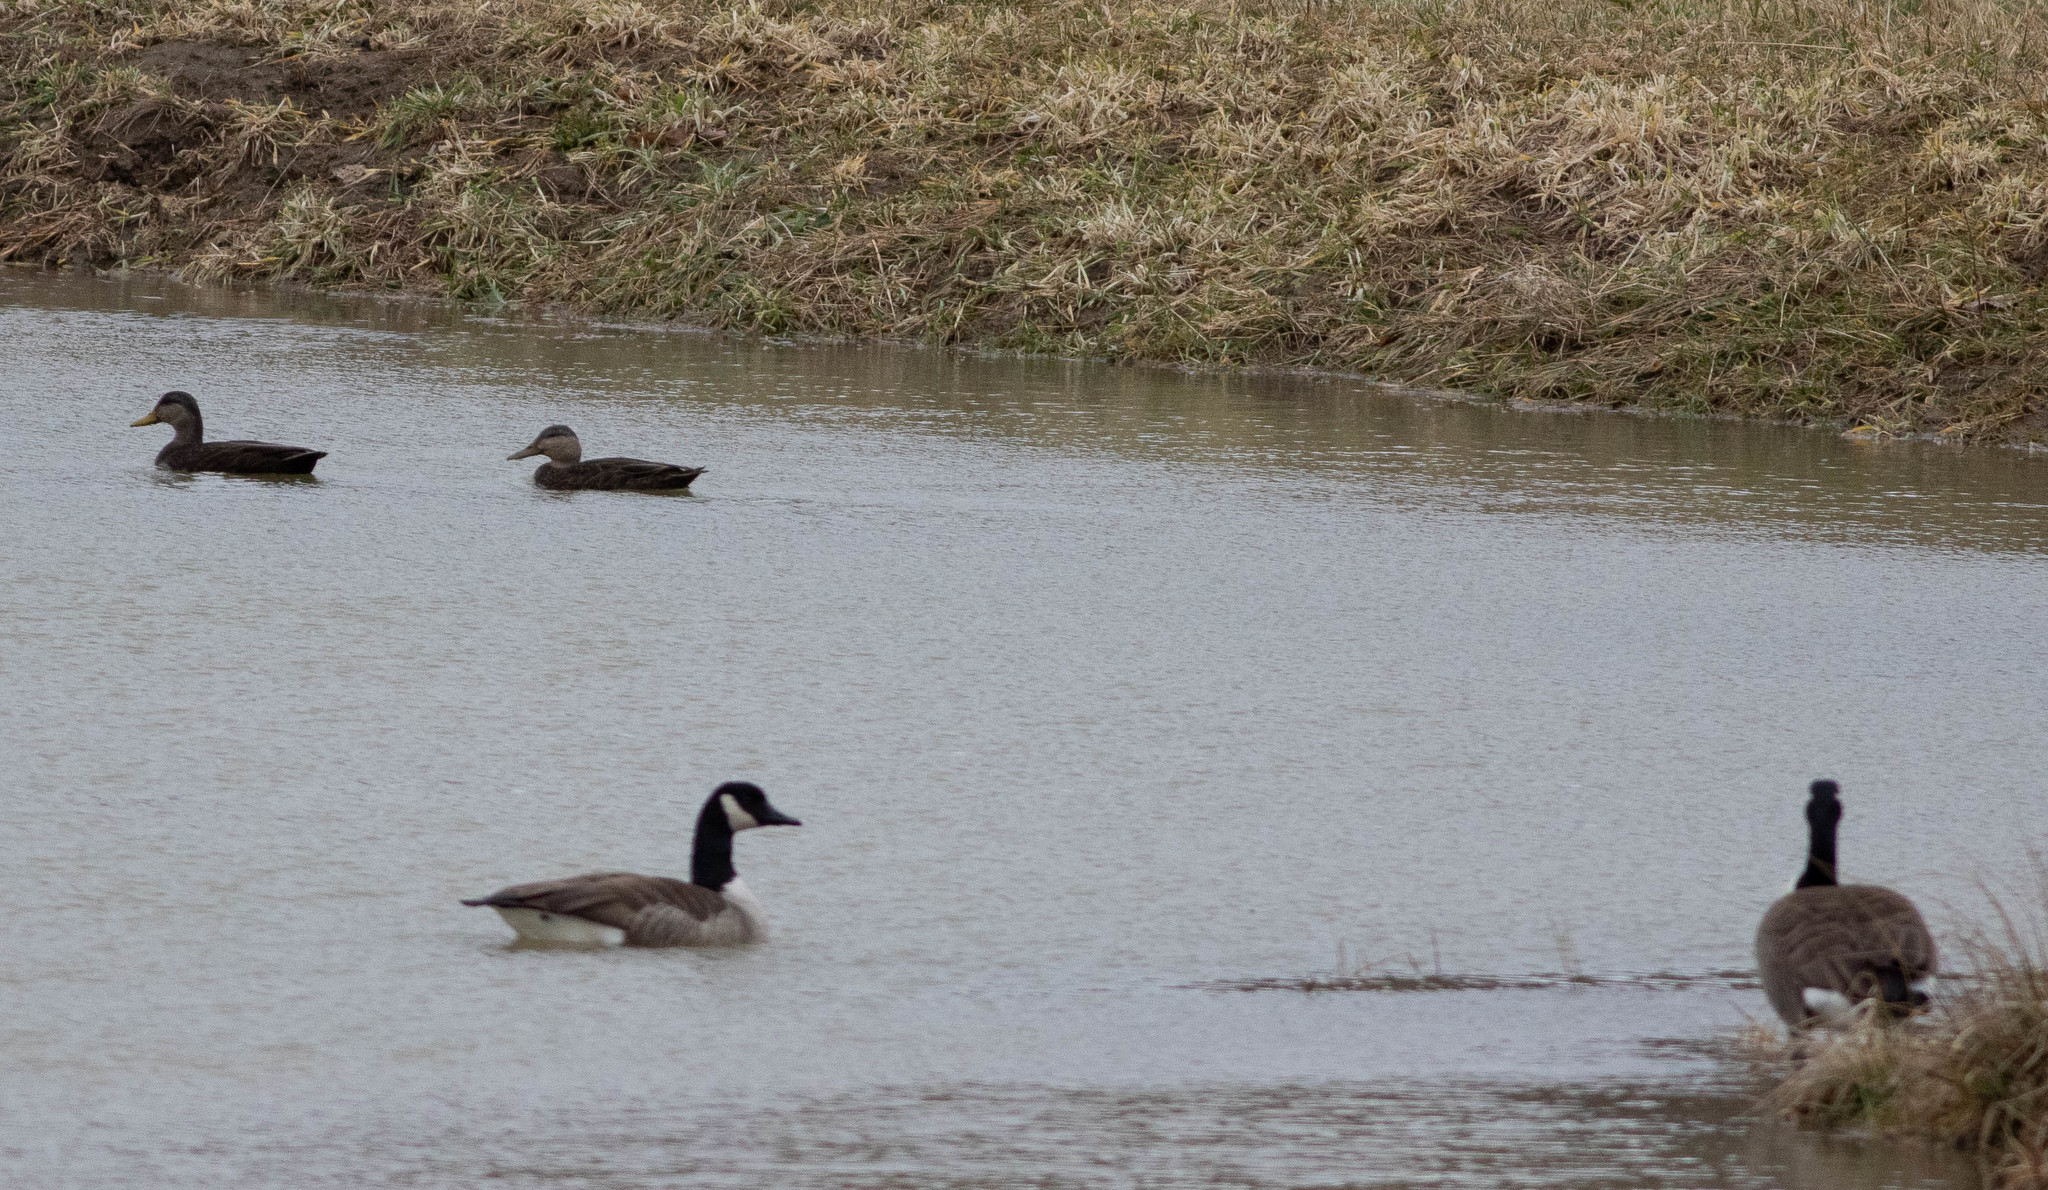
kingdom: Animalia
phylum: Chordata
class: Aves
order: Anseriformes
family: Anatidae
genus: Branta
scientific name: Branta canadensis
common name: Canada goose
